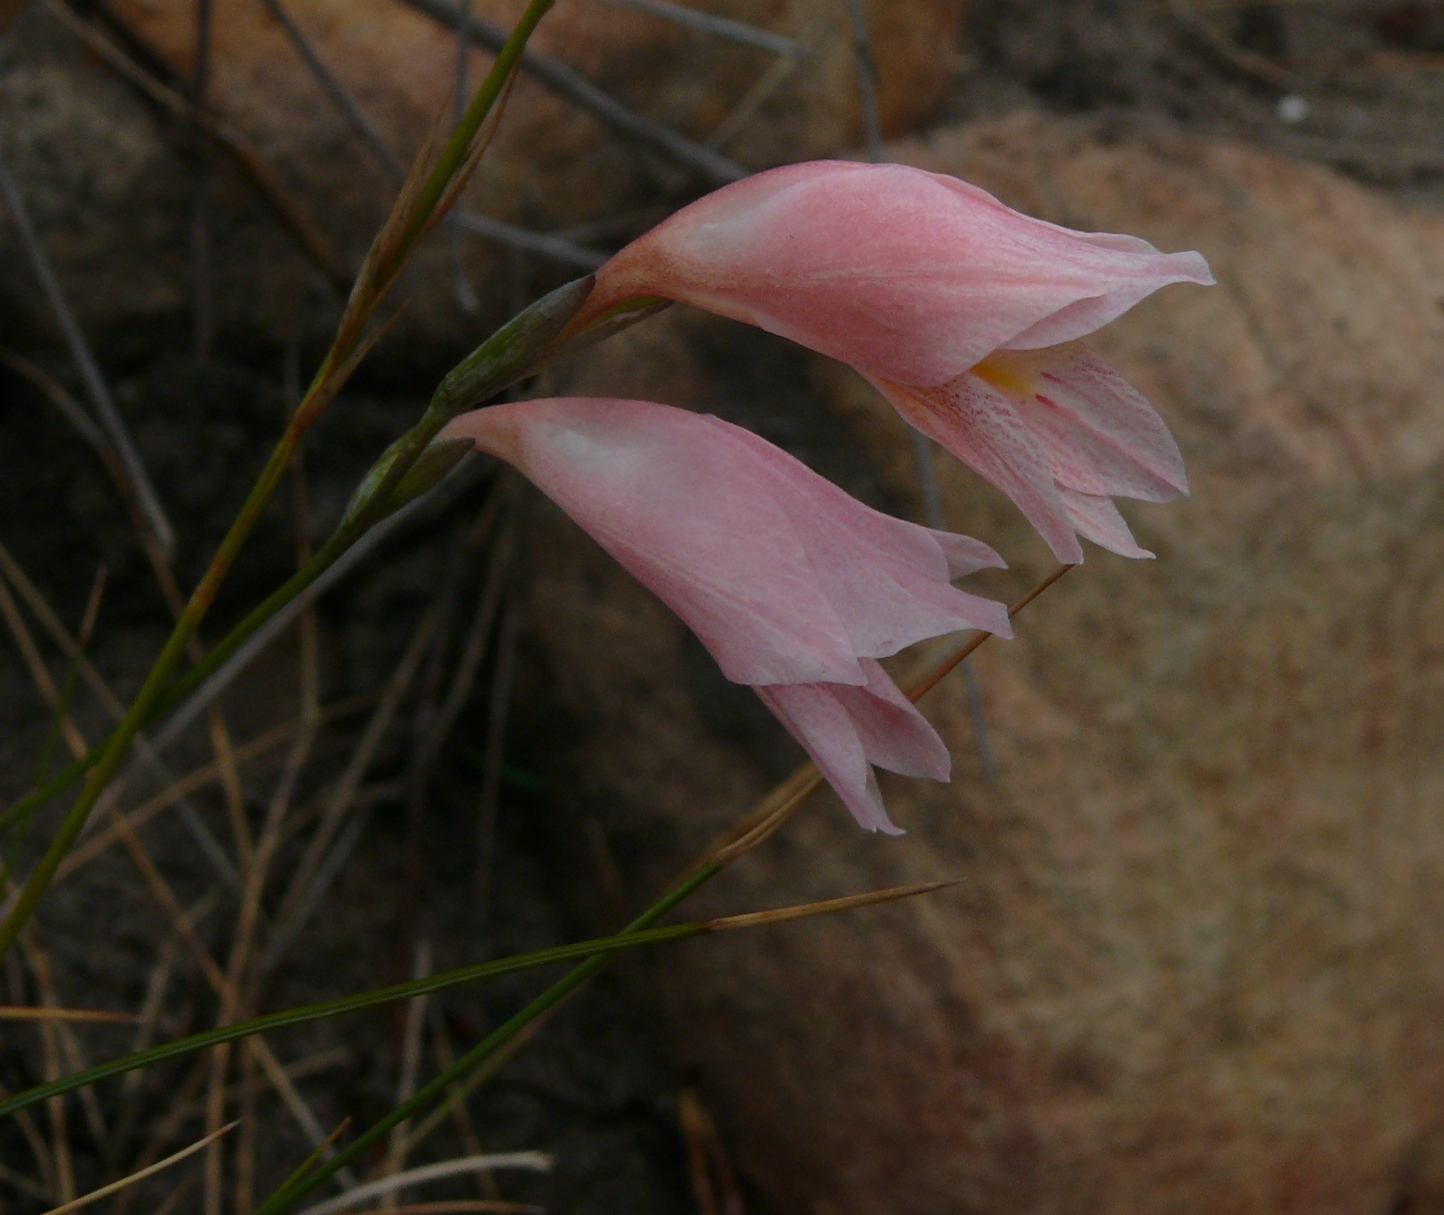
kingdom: Plantae
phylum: Tracheophyta
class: Liliopsida
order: Asparagales
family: Iridaceae
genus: Gladiolus
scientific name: Gladiolus brevifolius
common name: March pypie
